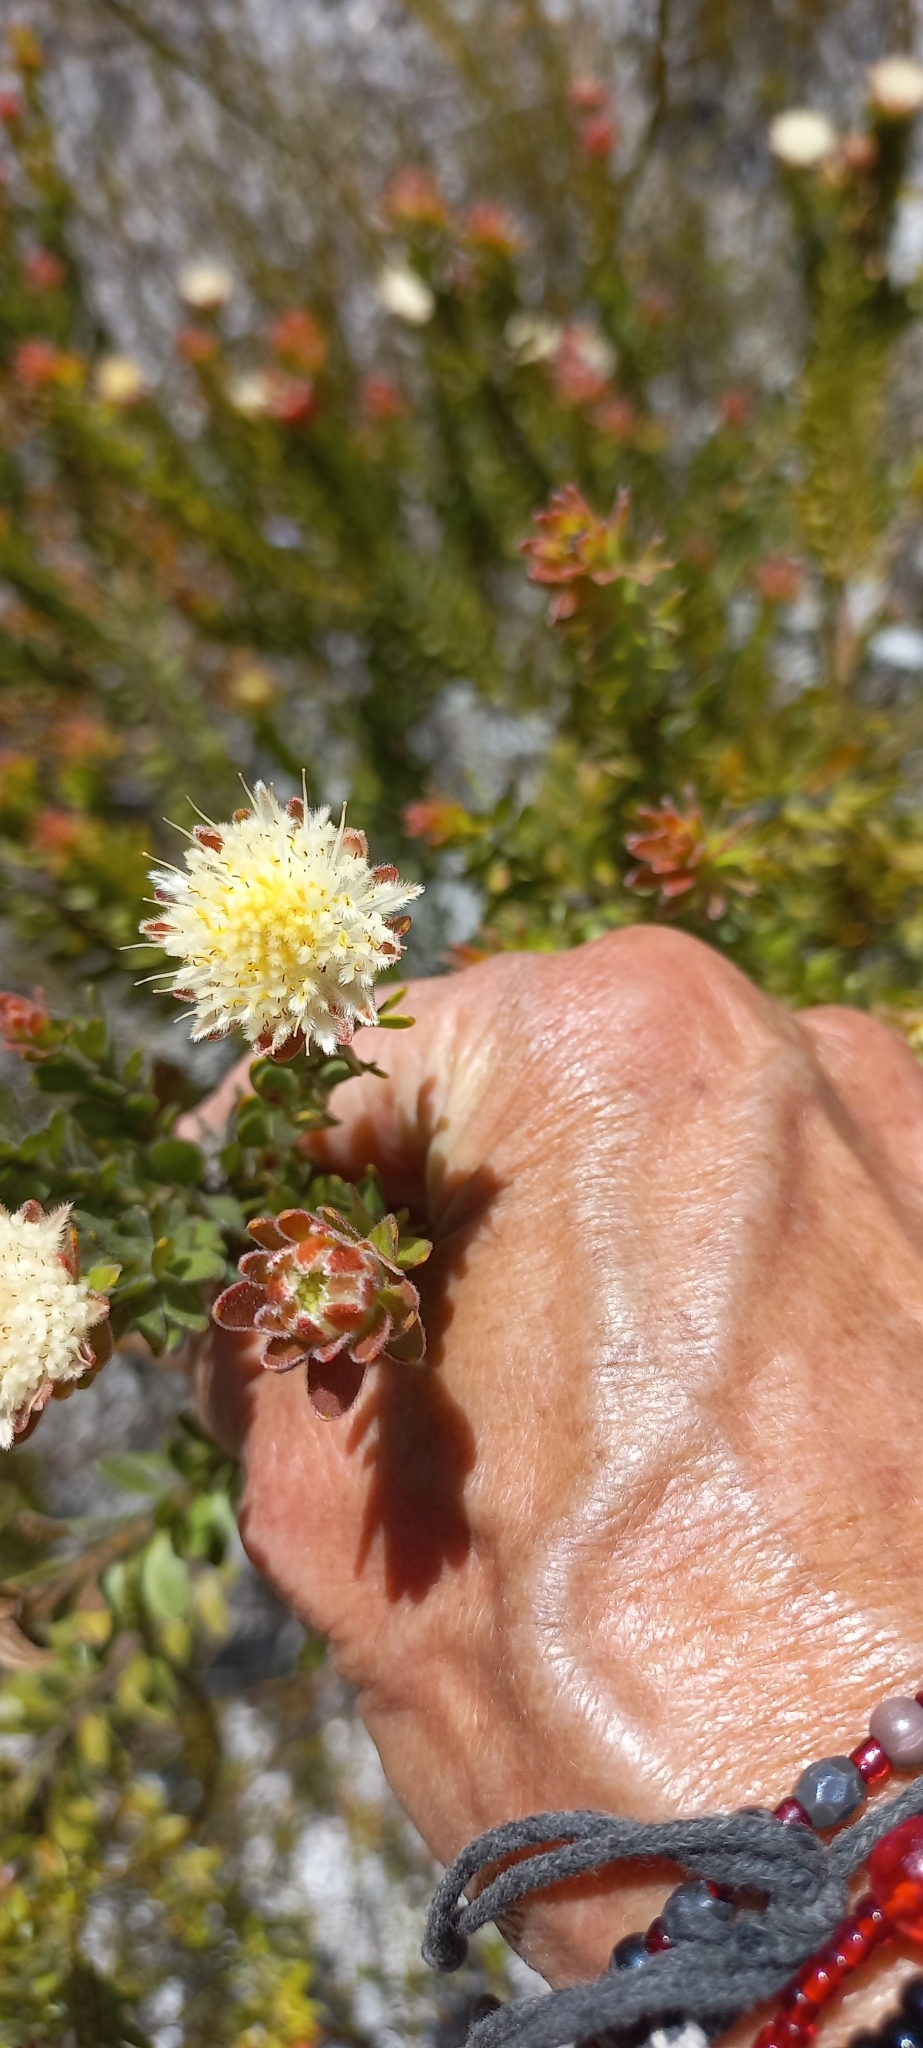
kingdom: Plantae
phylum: Tracheophyta
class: Magnoliopsida
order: Proteales
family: Proteaceae
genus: Diastella
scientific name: Diastella fraterna
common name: Palmiet silkypuff
